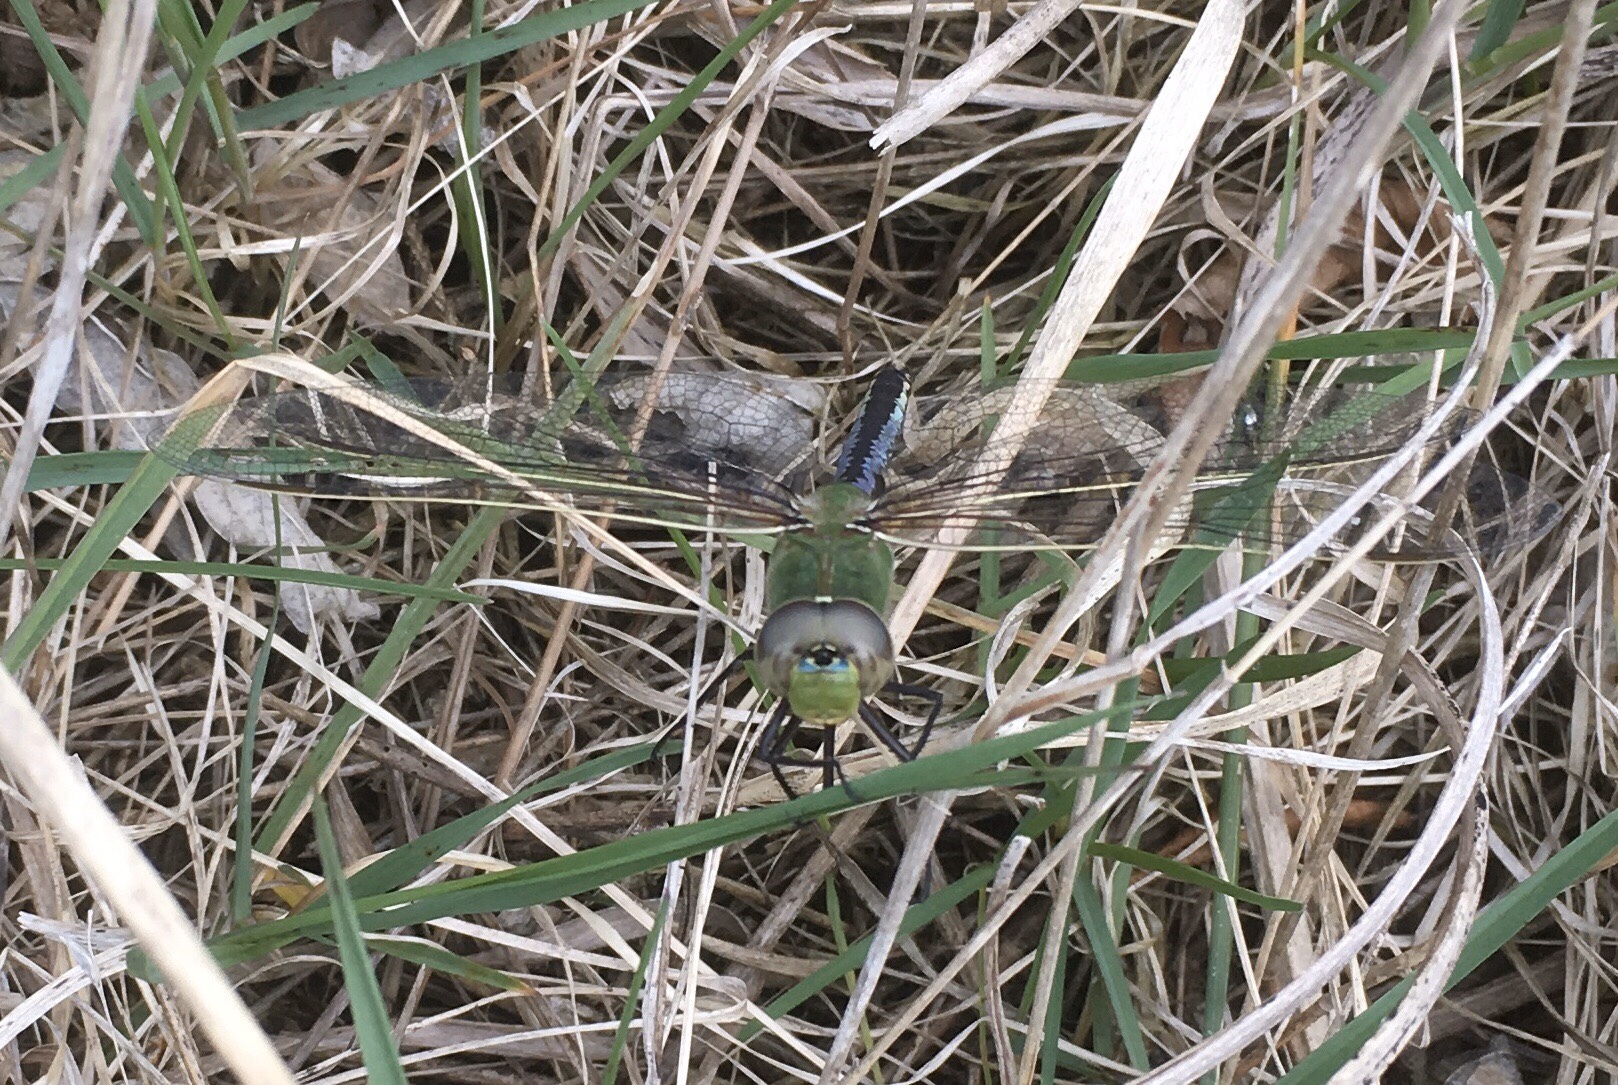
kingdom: Animalia
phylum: Arthropoda
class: Insecta
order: Odonata
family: Aeshnidae
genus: Anax
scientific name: Anax junius
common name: Common green darner
